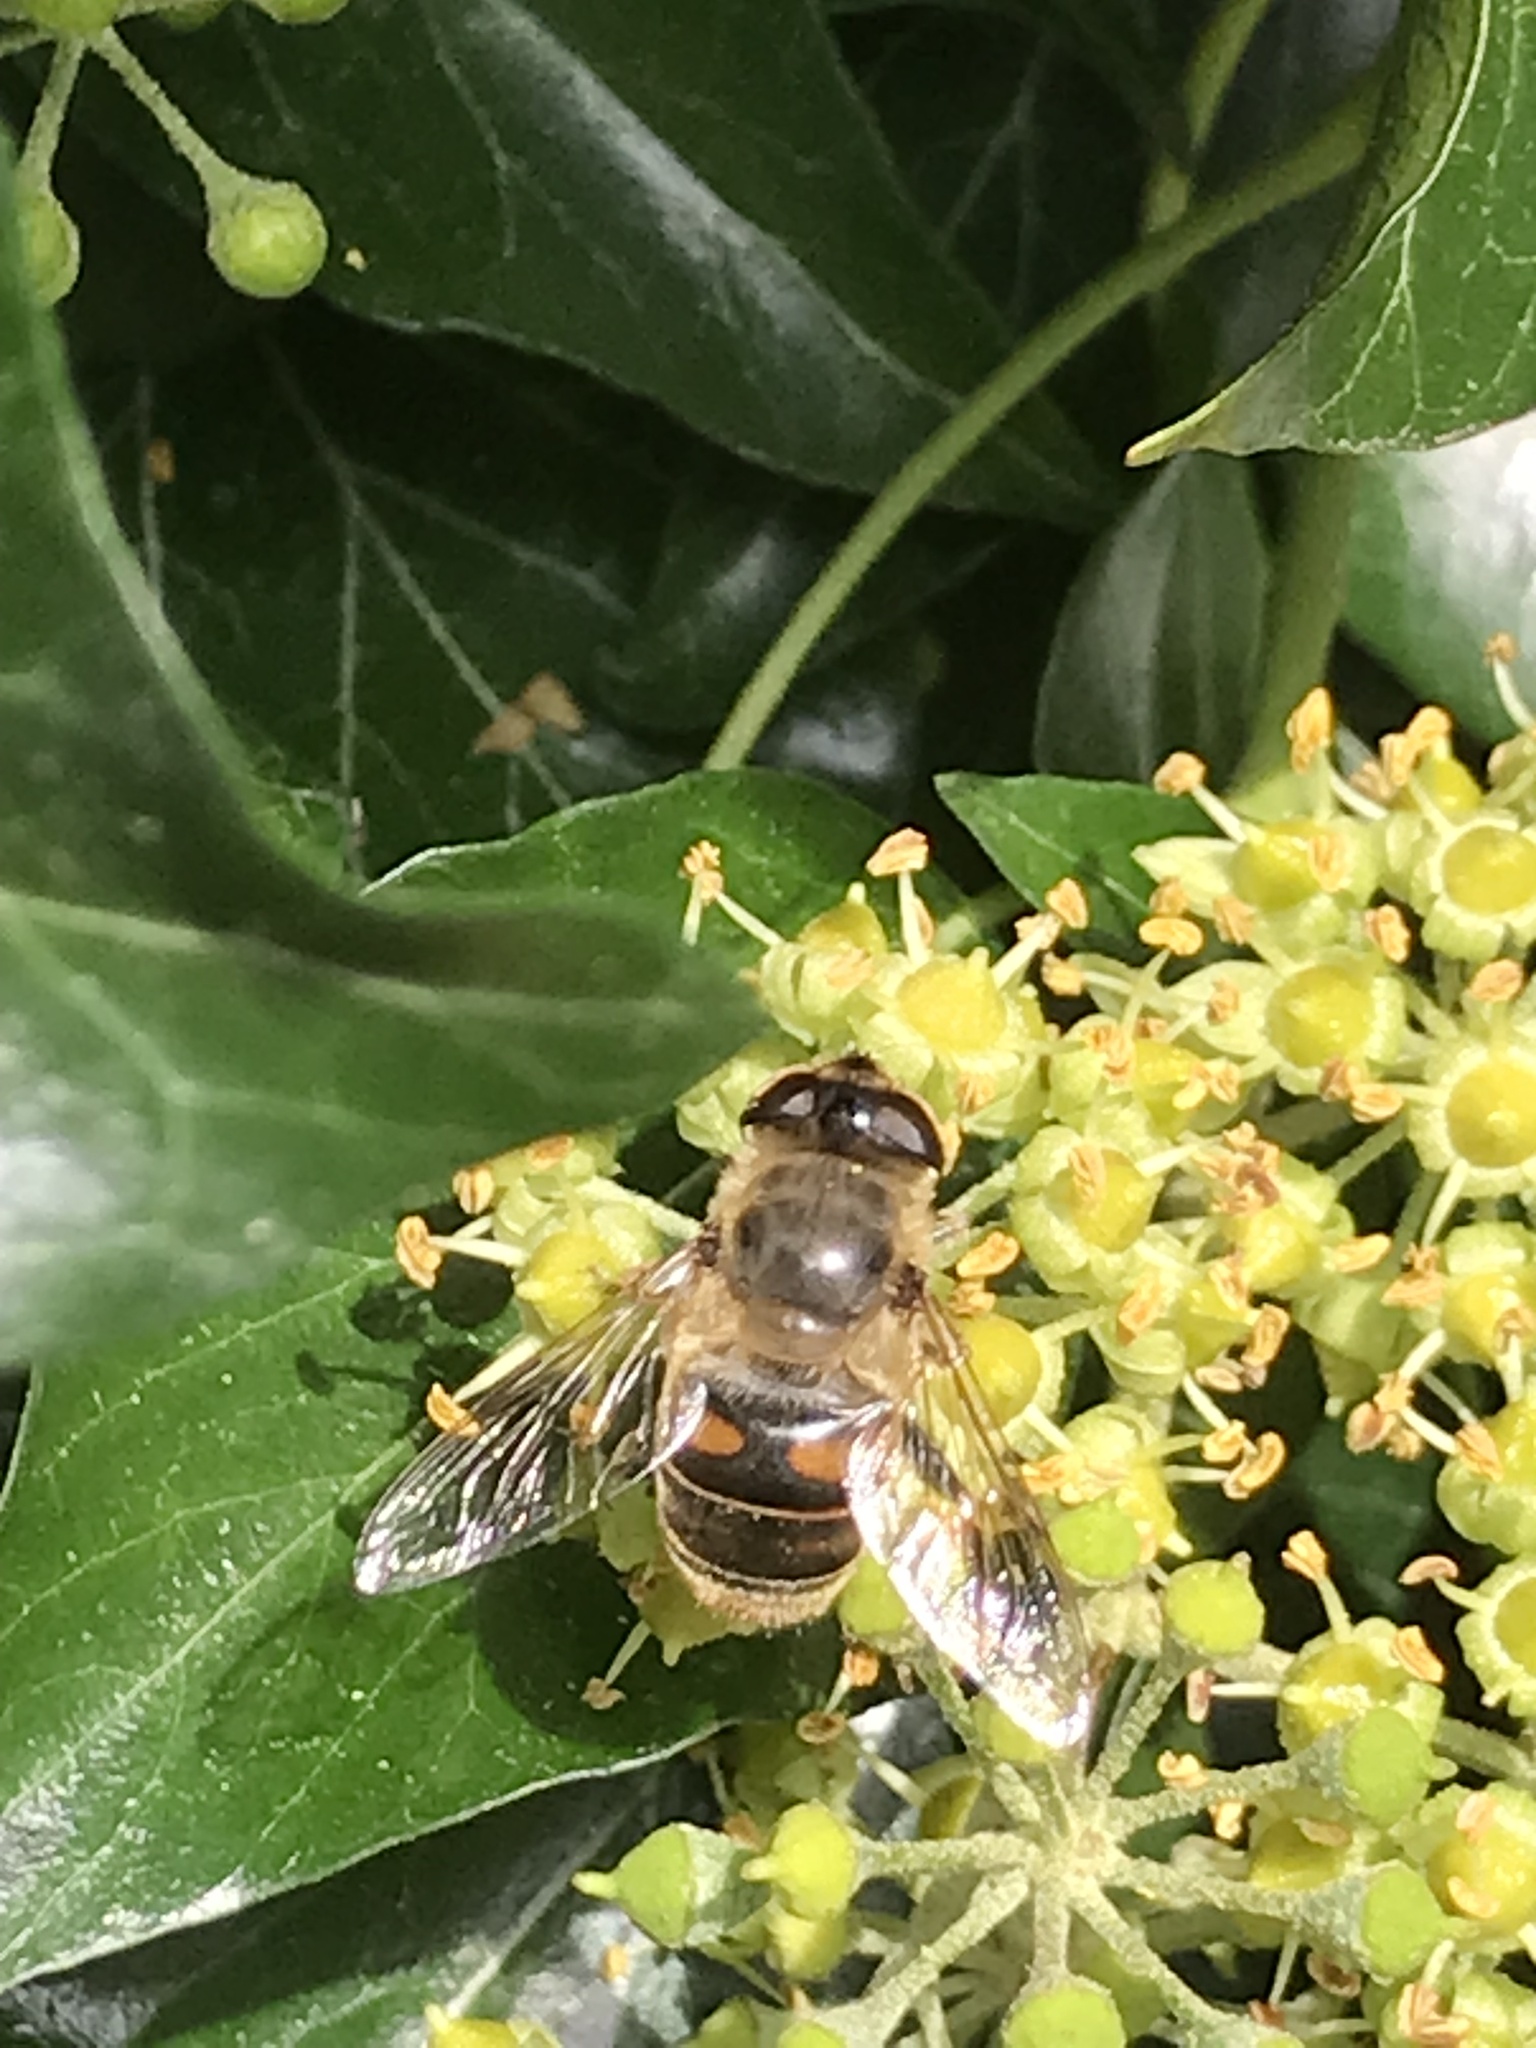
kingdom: Animalia
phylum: Arthropoda
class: Insecta
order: Diptera
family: Syrphidae
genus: Eristalis
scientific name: Eristalis tenax
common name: Drone fly
